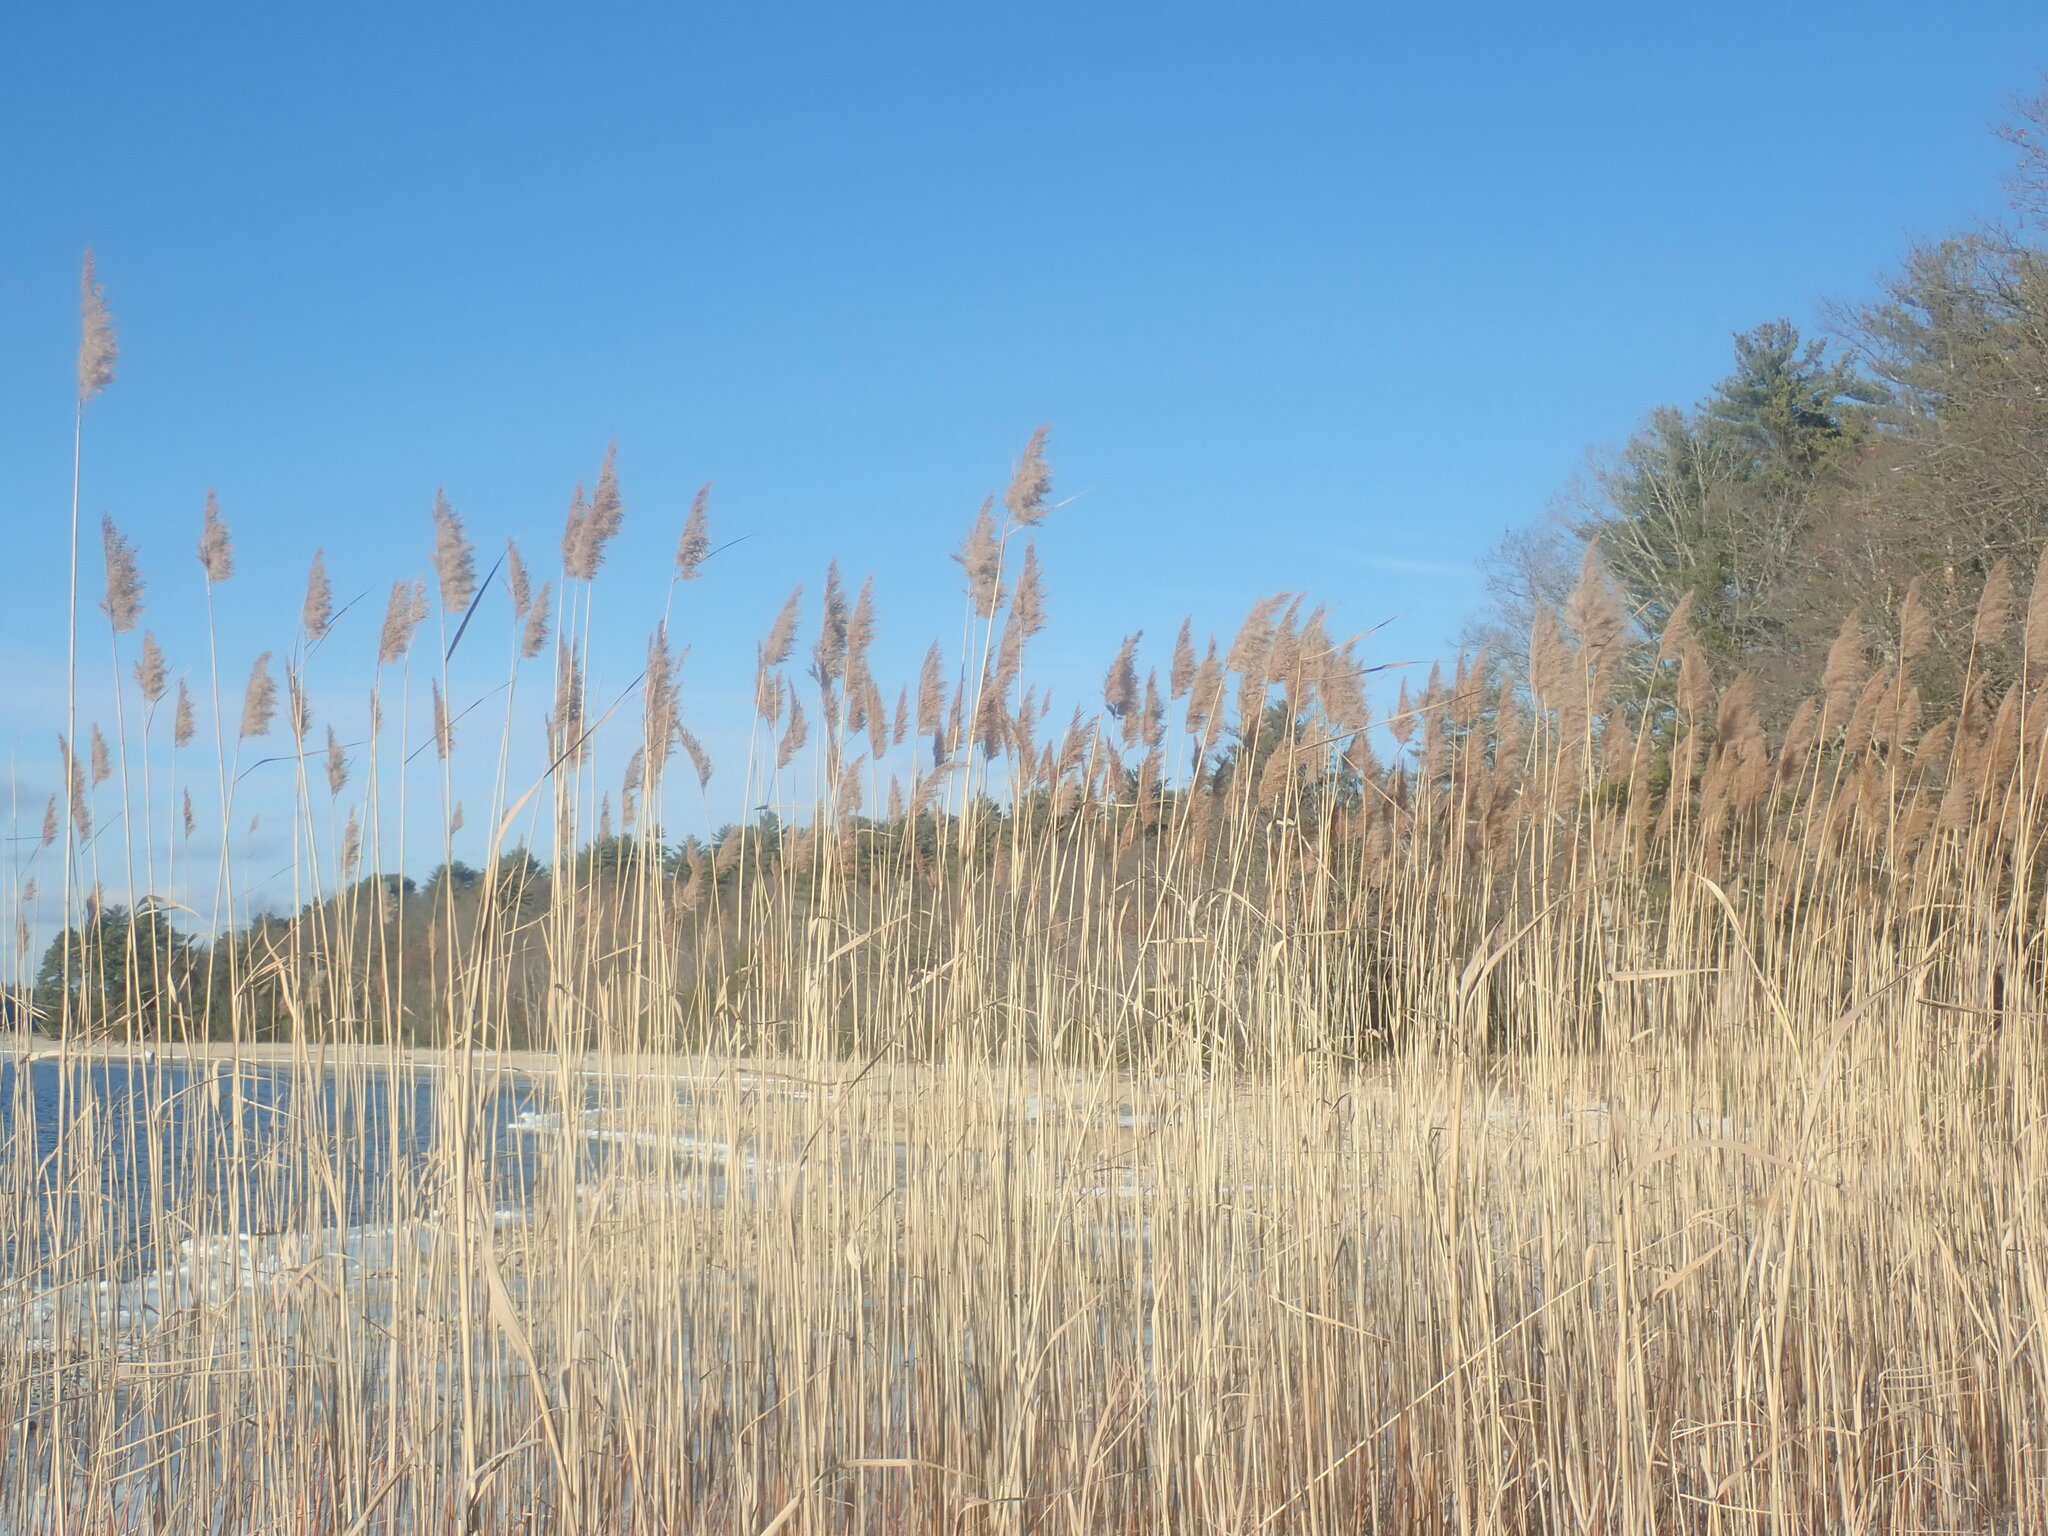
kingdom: Plantae
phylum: Tracheophyta
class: Liliopsida
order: Poales
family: Poaceae
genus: Phragmites
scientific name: Phragmites australis
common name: Common reed
